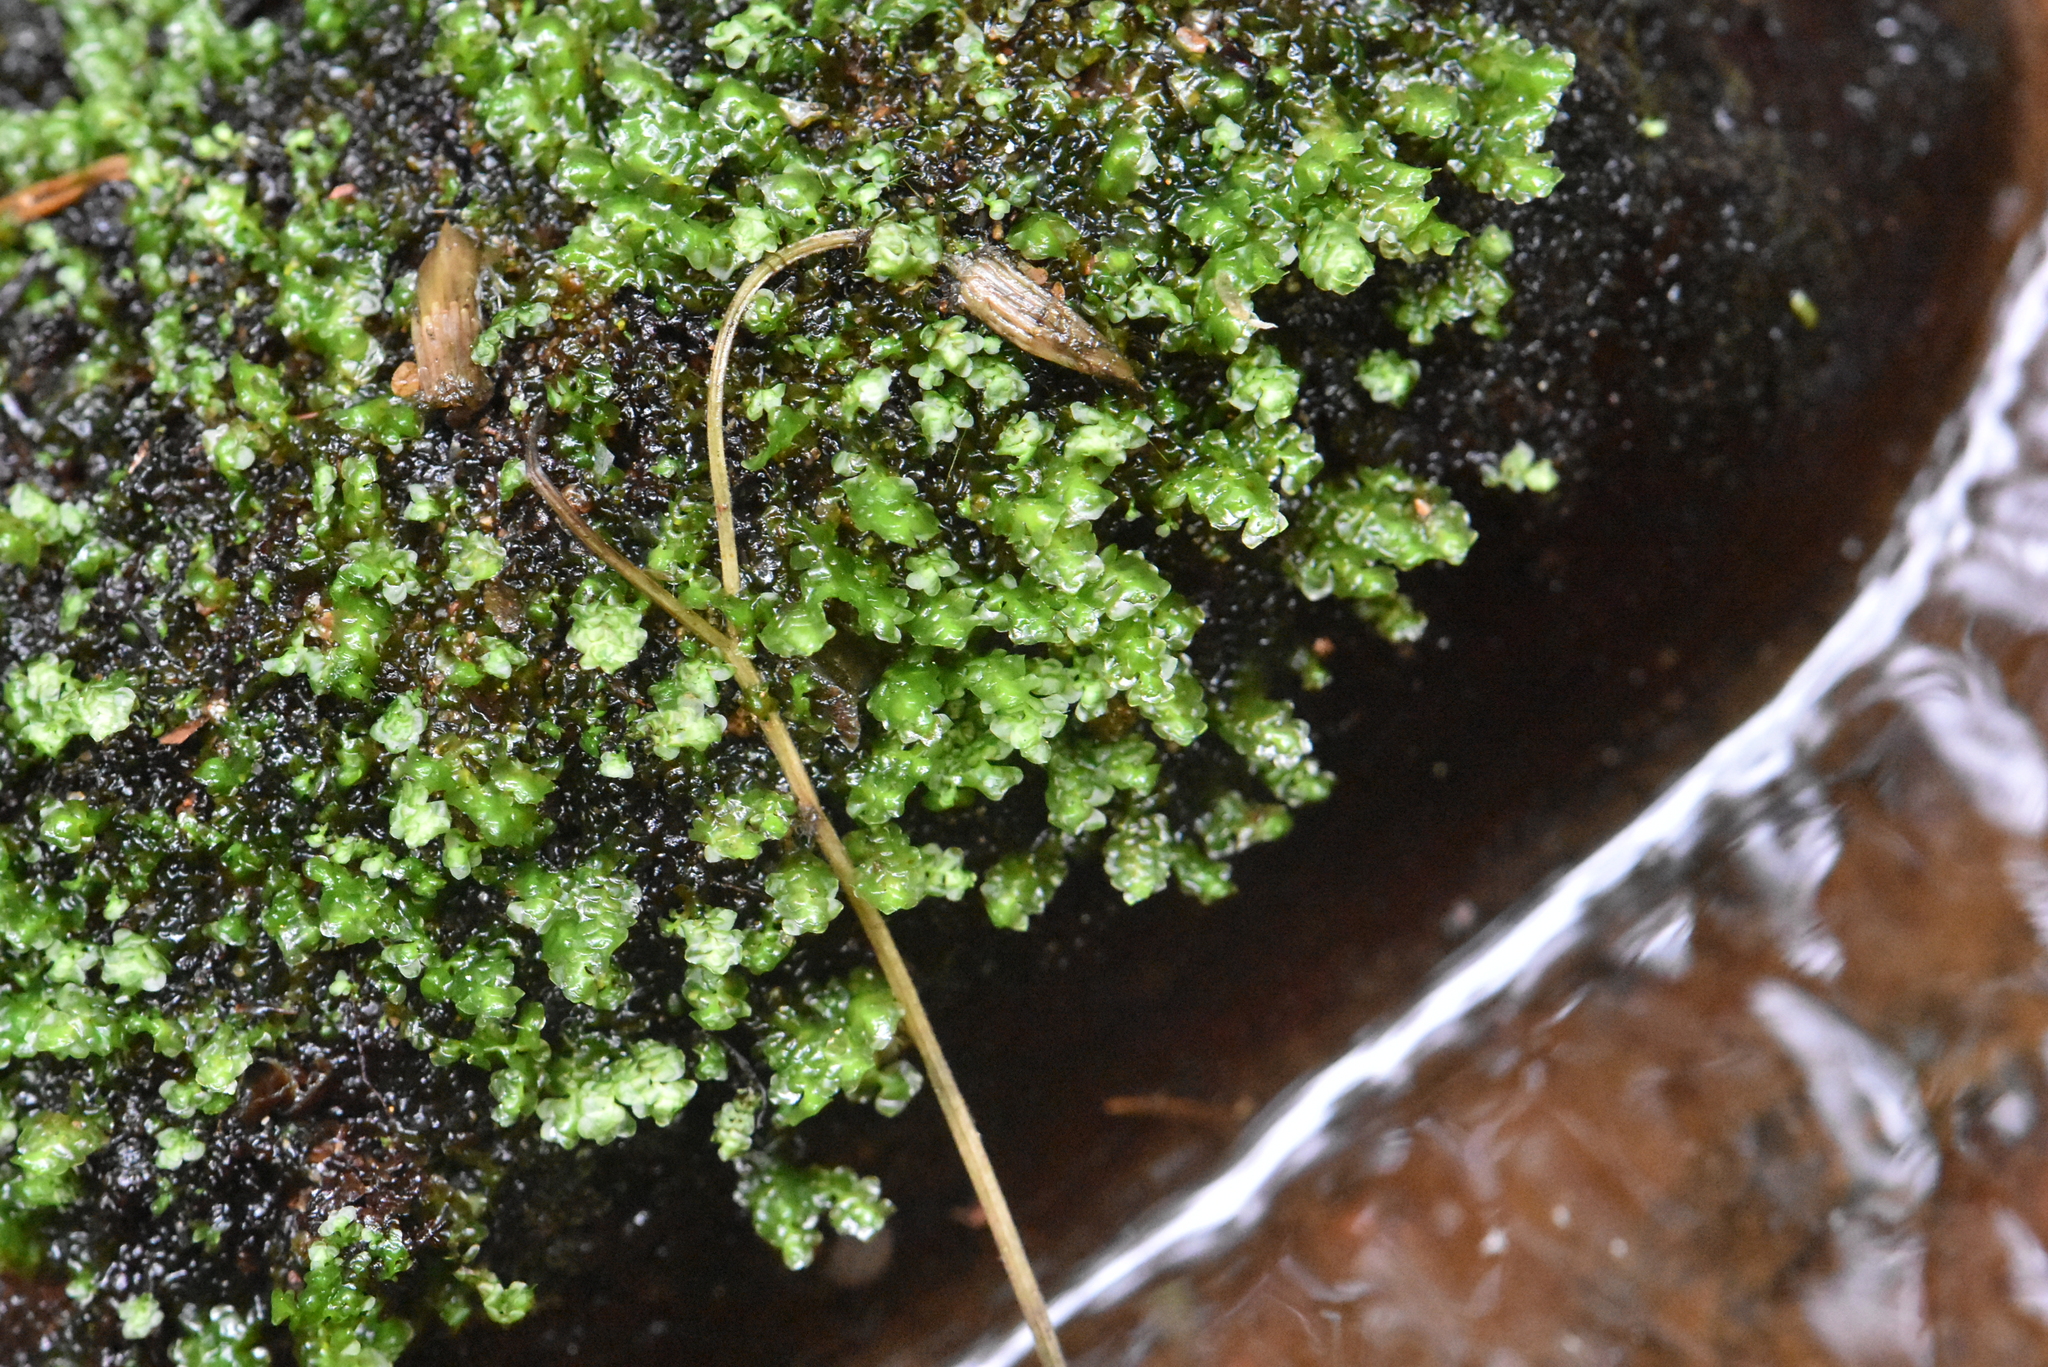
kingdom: Plantae
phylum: Marchantiophyta
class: Jungermanniopsida
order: Jungermanniales
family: Scapaniaceae
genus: Scapania
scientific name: Scapania undulata
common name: Water earwort
